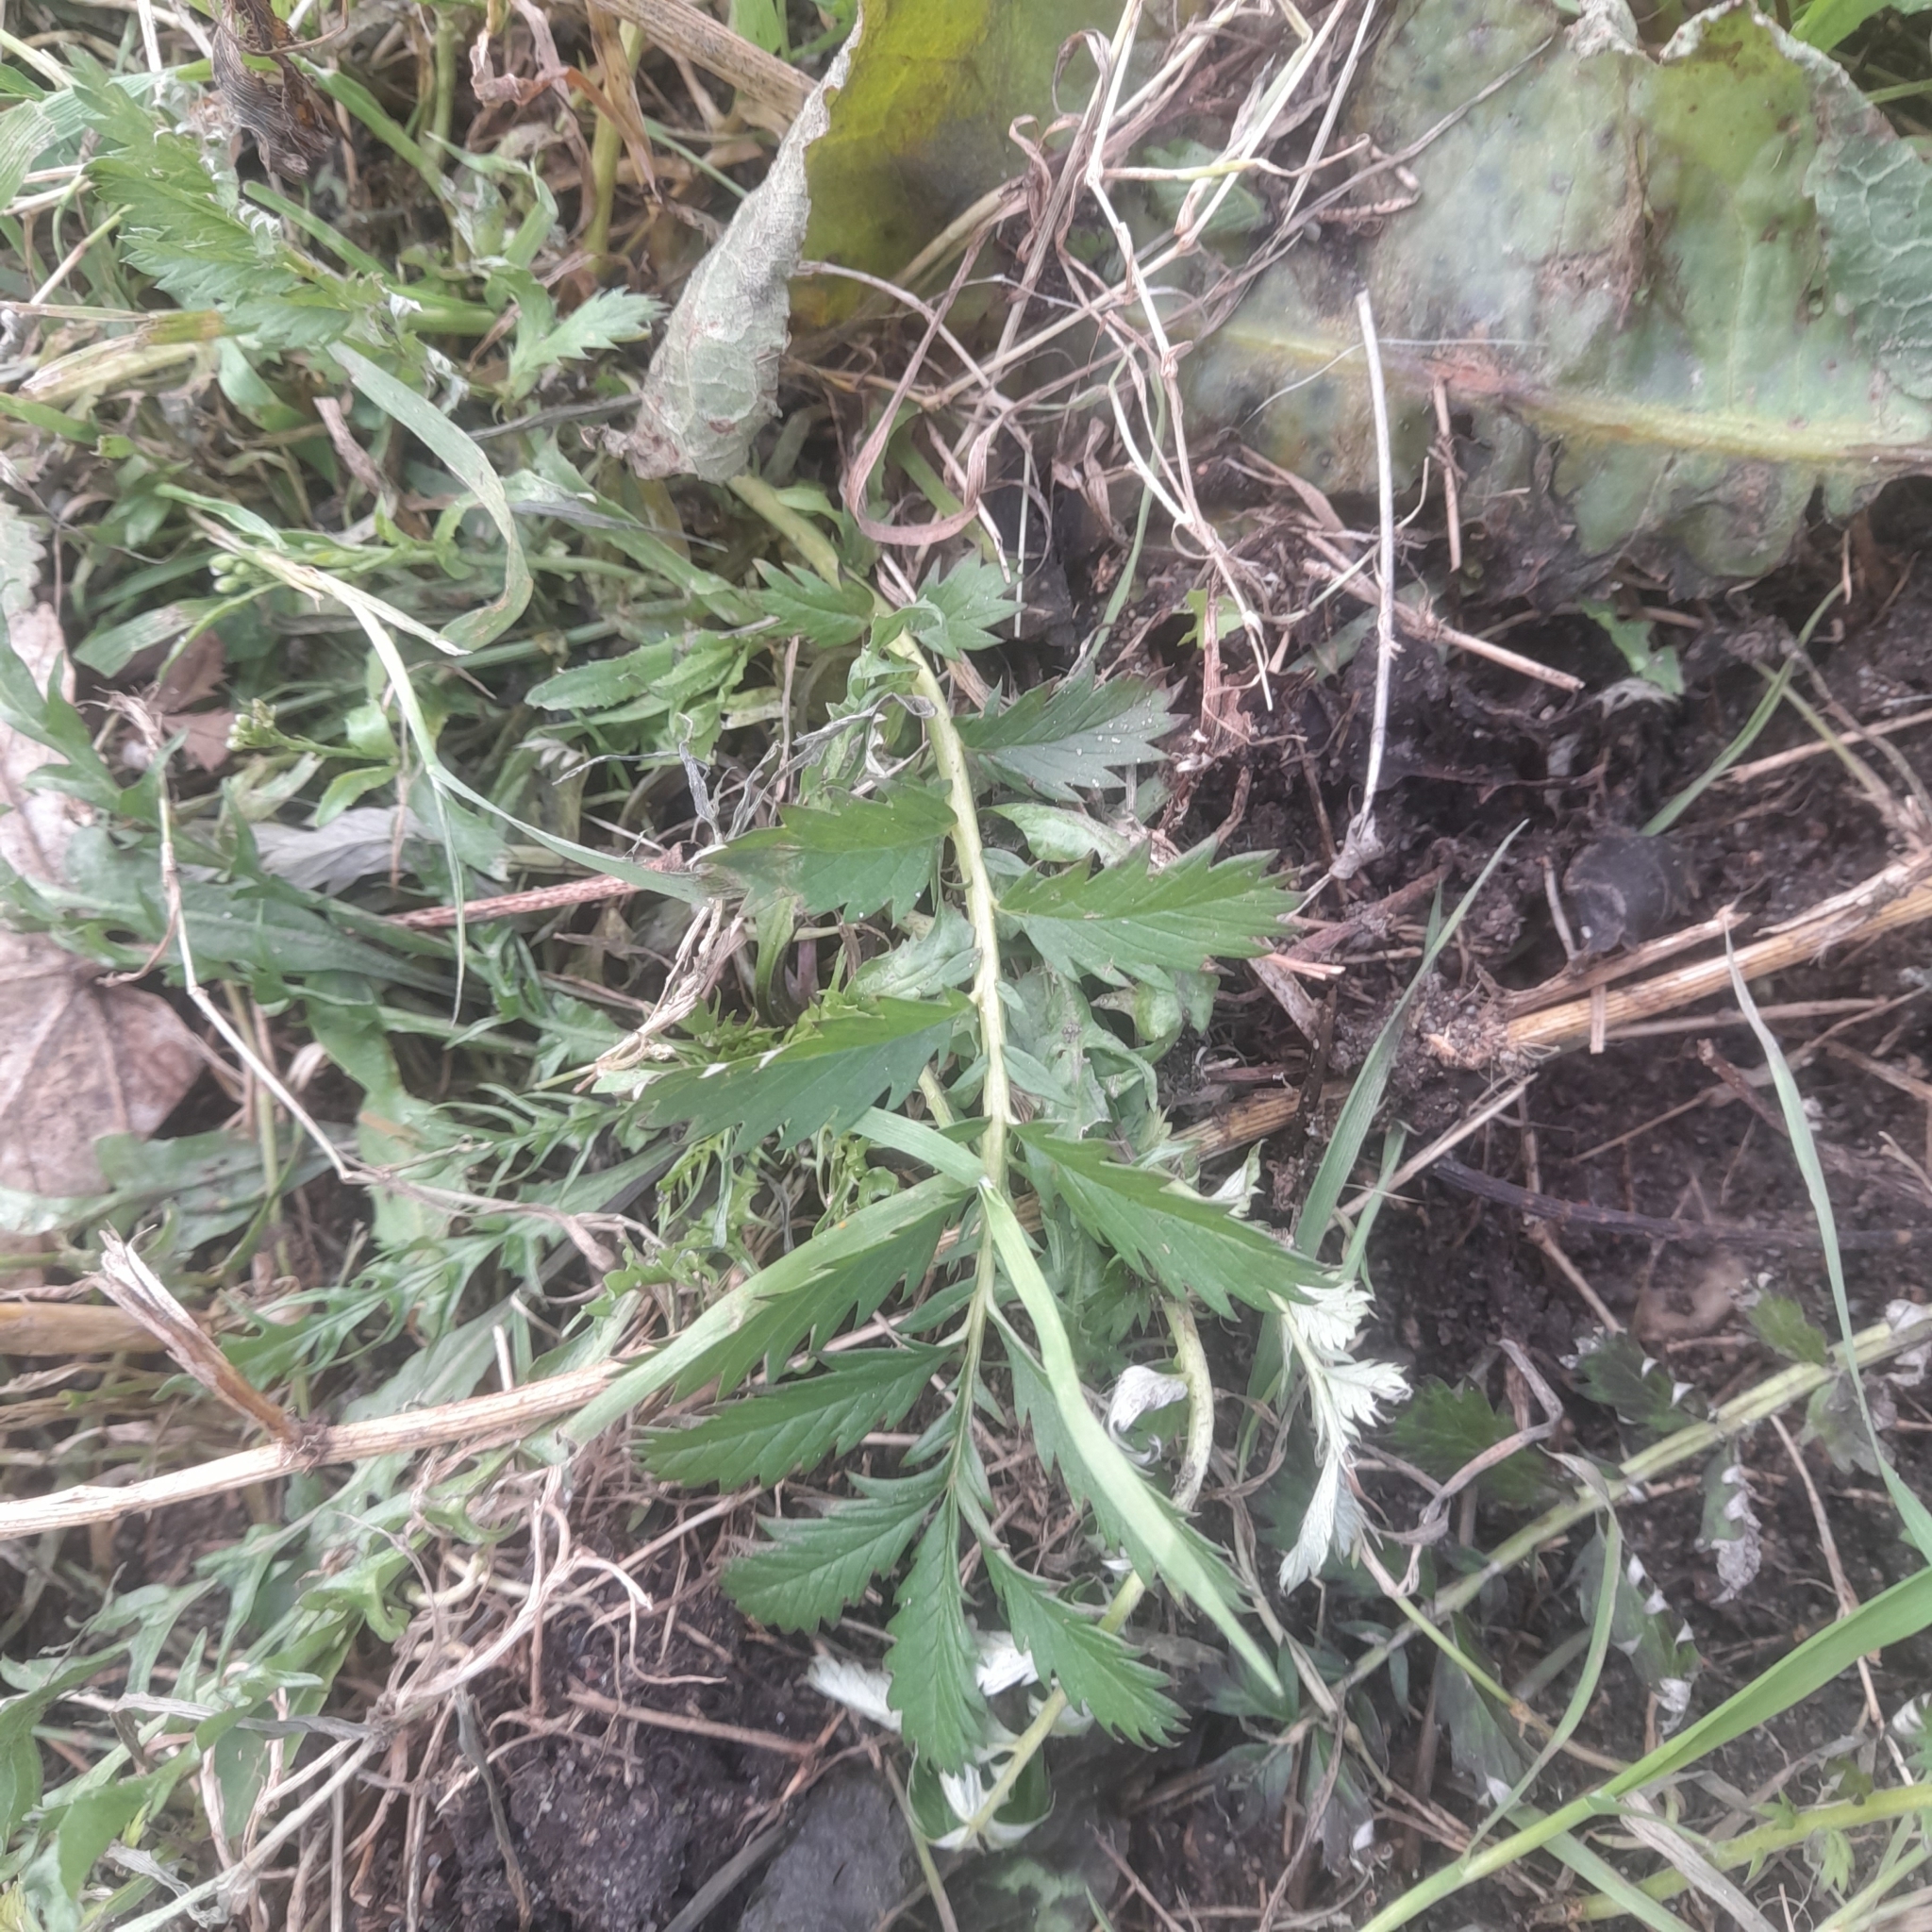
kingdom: Plantae
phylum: Tracheophyta
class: Magnoliopsida
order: Rosales
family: Rosaceae
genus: Argentina
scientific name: Argentina anserina
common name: Common silverweed
